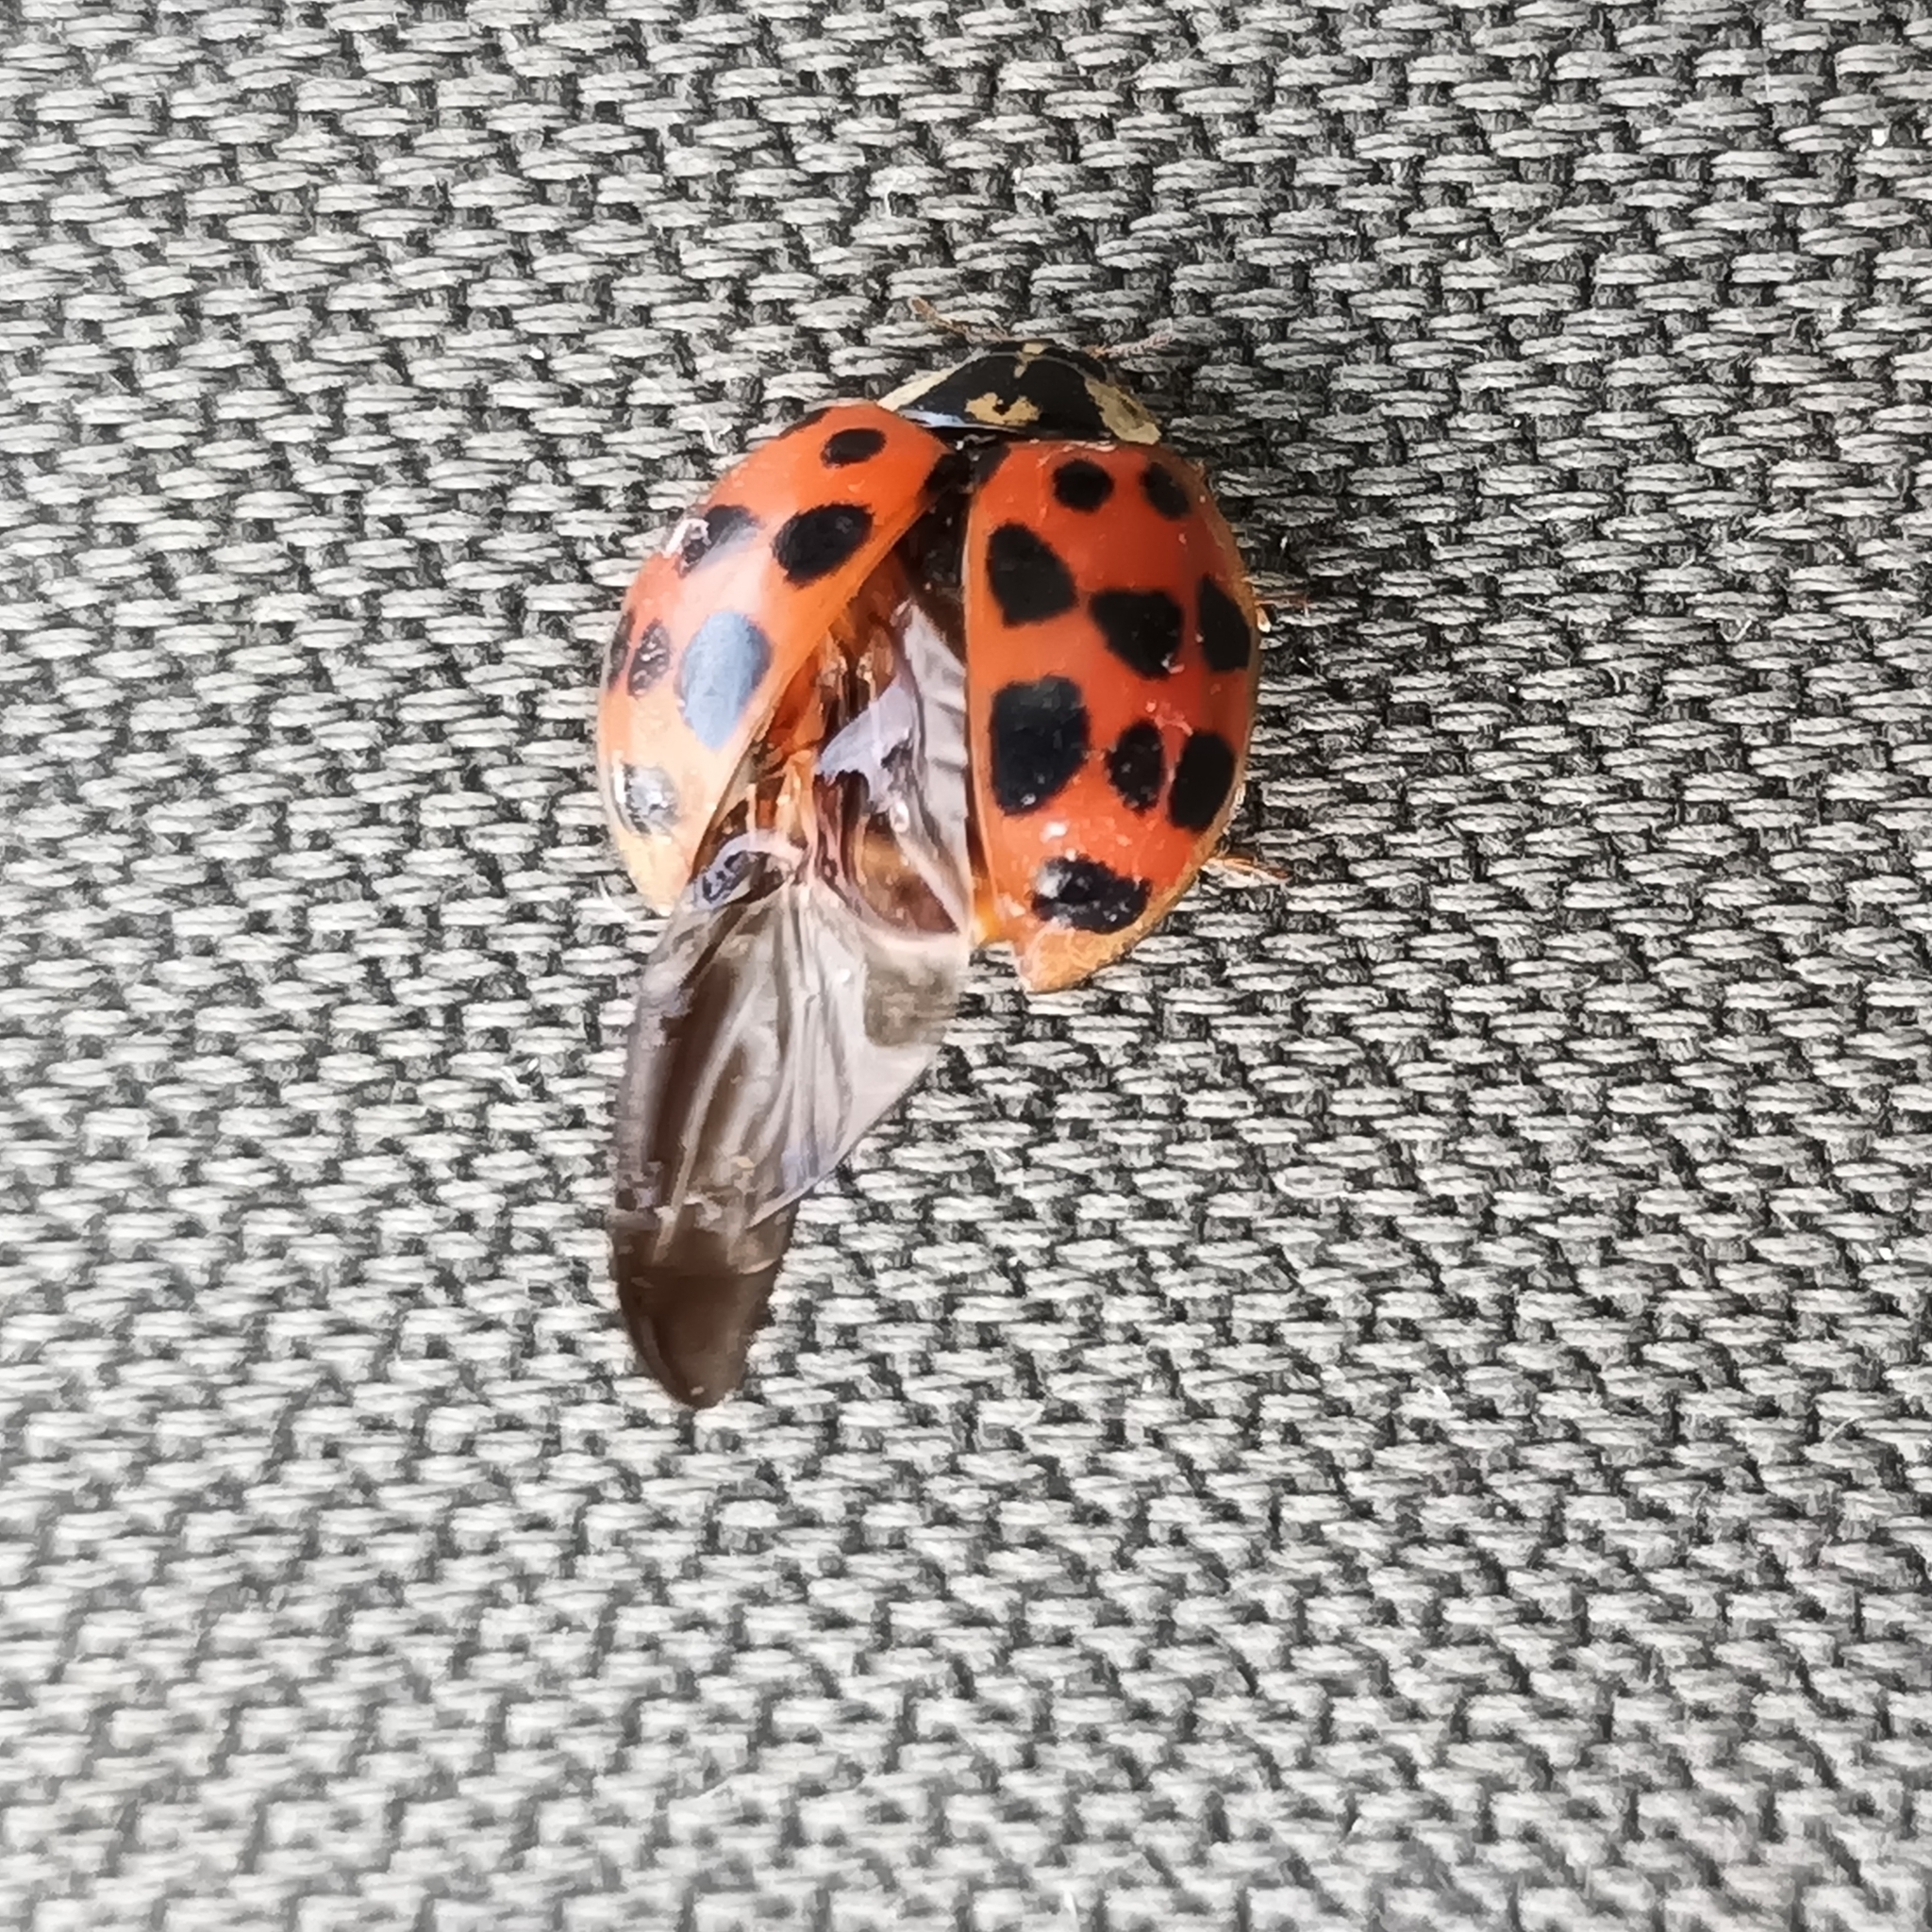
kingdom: Animalia
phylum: Arthropoda
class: Insecta
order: Coleoptera
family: Coccinellidae
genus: Harmonia
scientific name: Harmonia axyridis
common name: Harlequin ladybird
